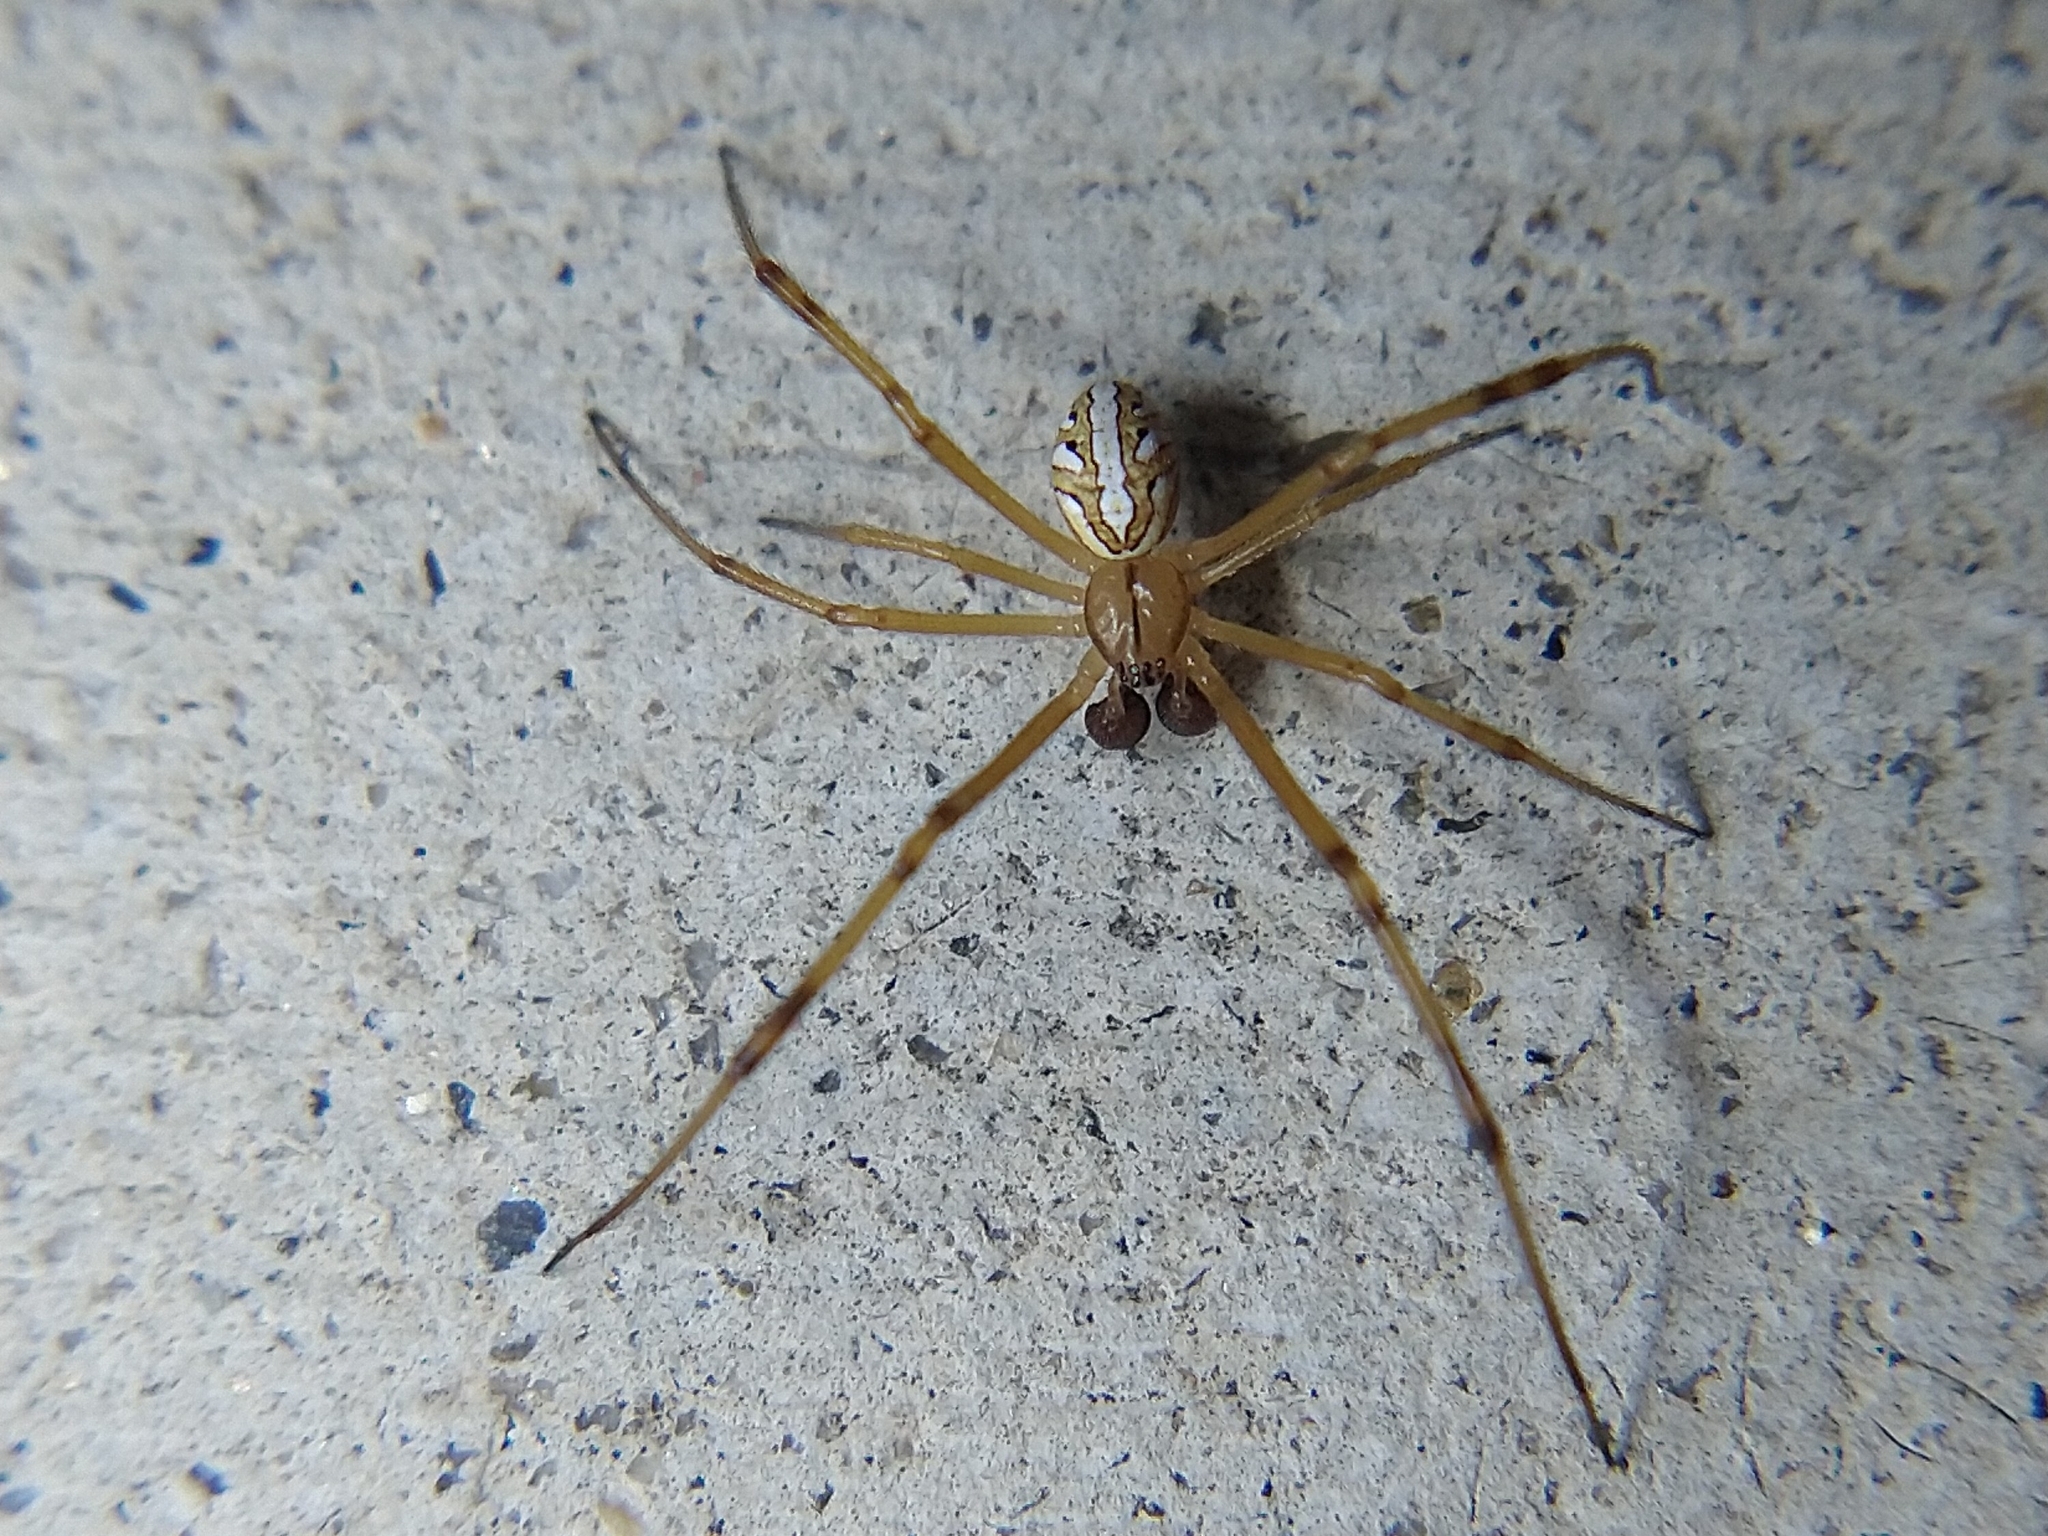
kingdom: Animalia
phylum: Arthropoda
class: Arachnida
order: Araneae
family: Theridiidae
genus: Latrodectus
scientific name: Latrodectus hesperus
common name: Western black widow
